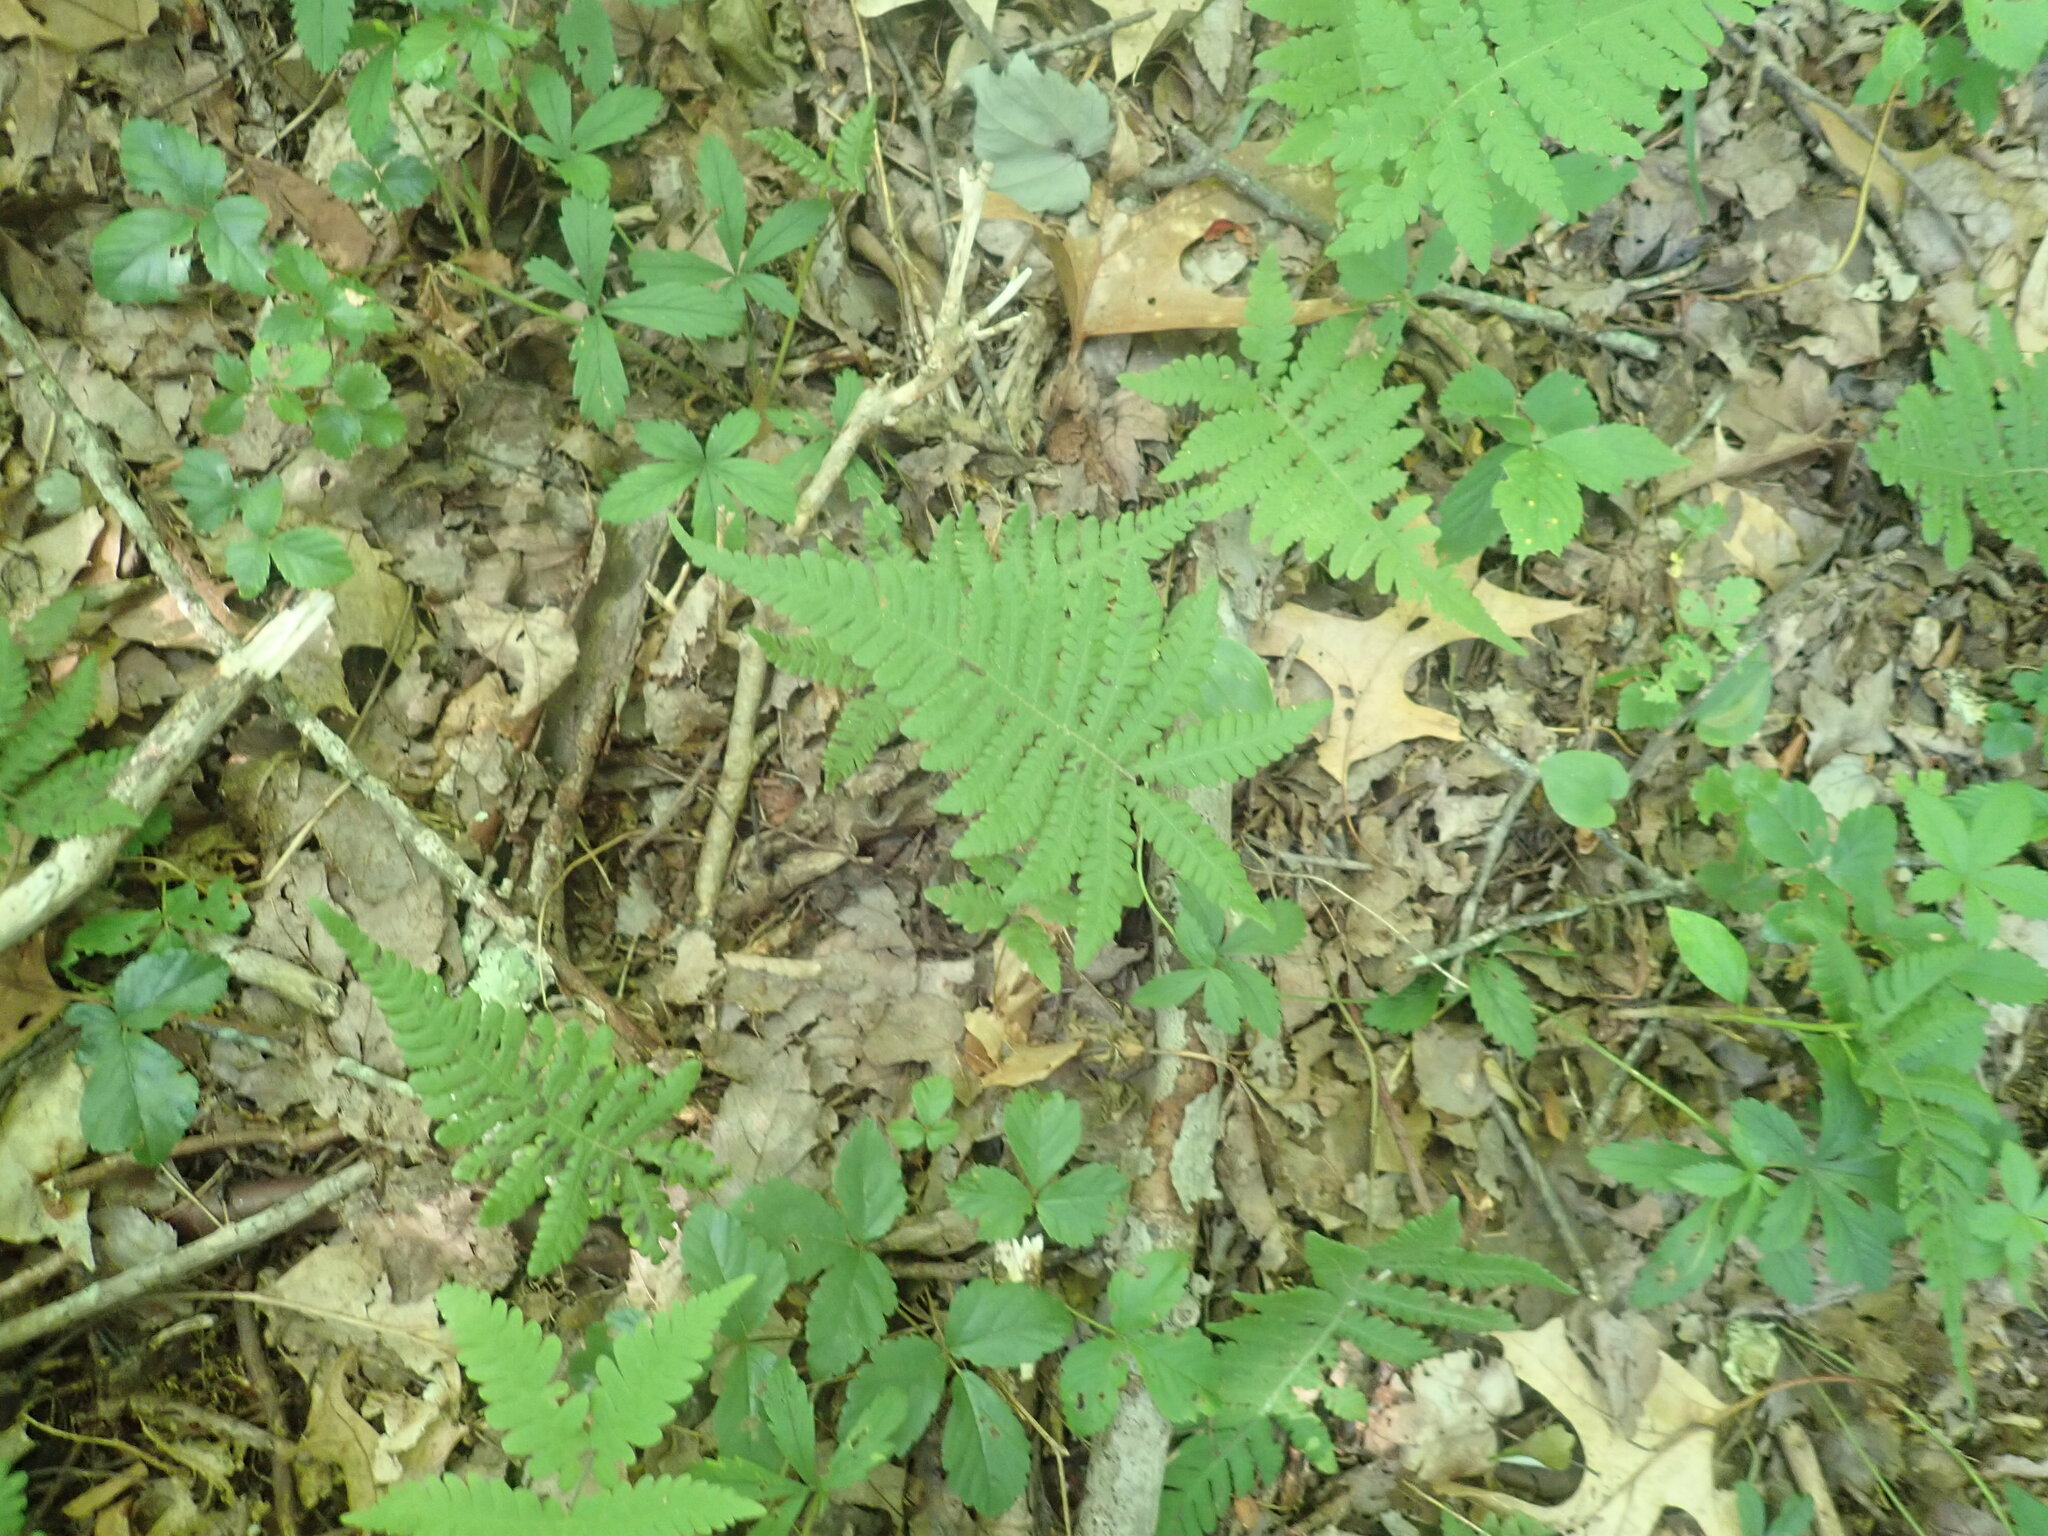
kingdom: Plantae
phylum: Tracheophyta
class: Polypodiopsida
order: Polypodiales
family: Thelypteridaceae
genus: Phegopteris
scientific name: Phegopteris connectilis
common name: Beech fern
